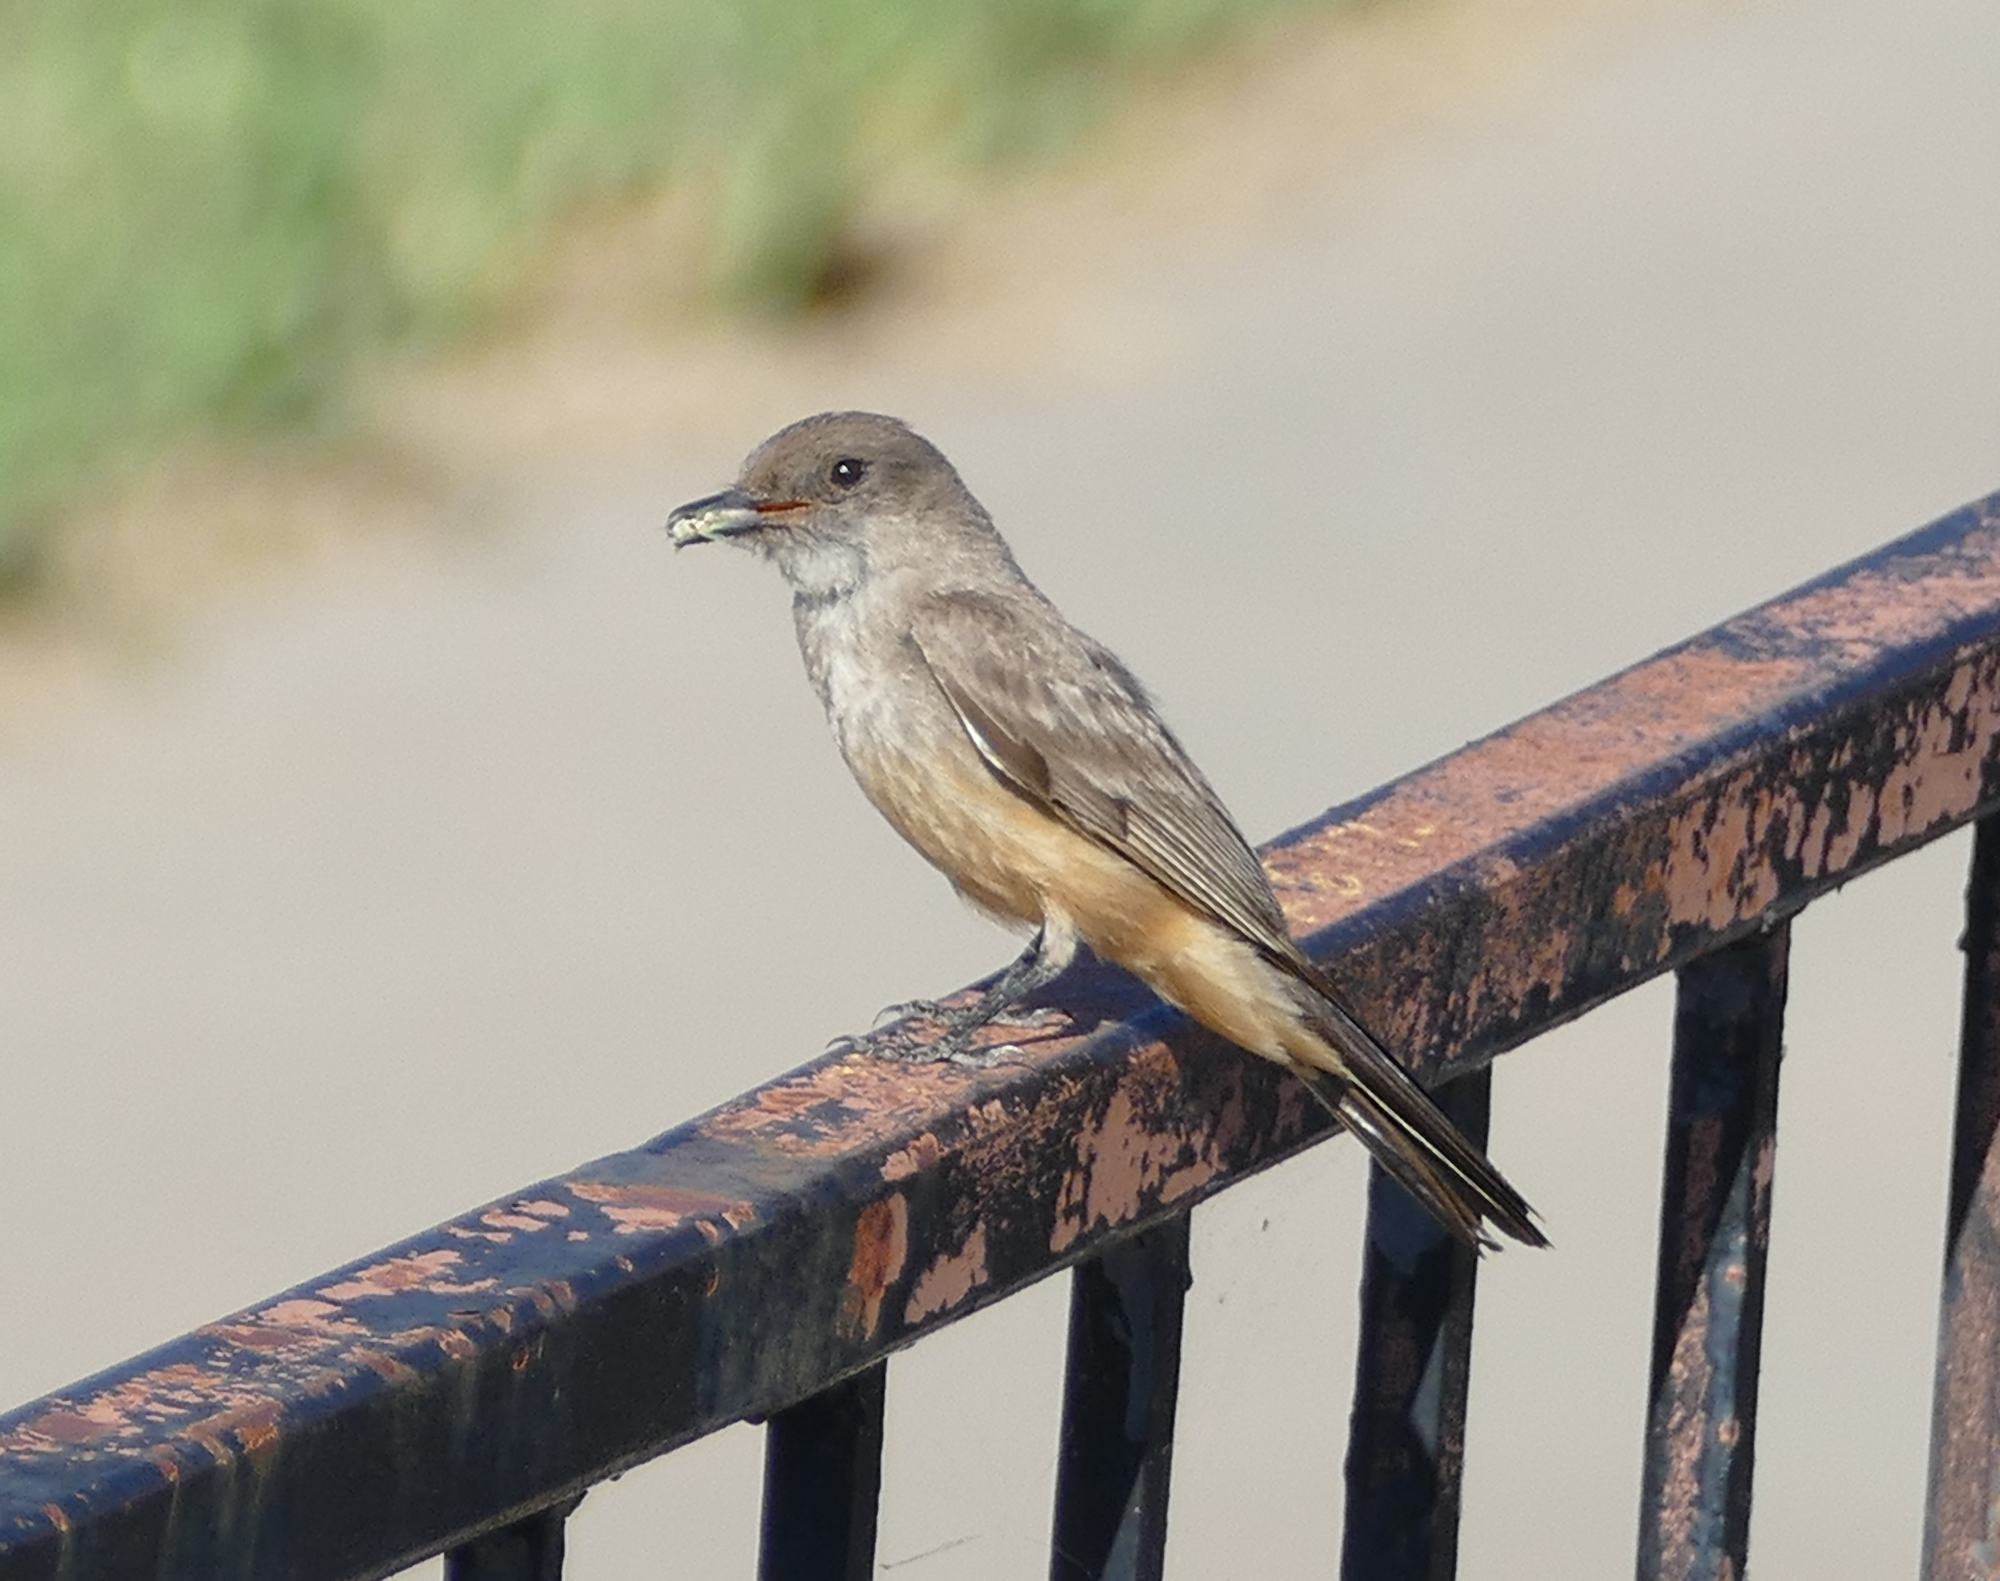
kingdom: Animalia
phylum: Chordata
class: Aves
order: Passeriformes
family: Tyrannidae
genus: Sayornis
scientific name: Sayornis saya
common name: Say's phoebe
